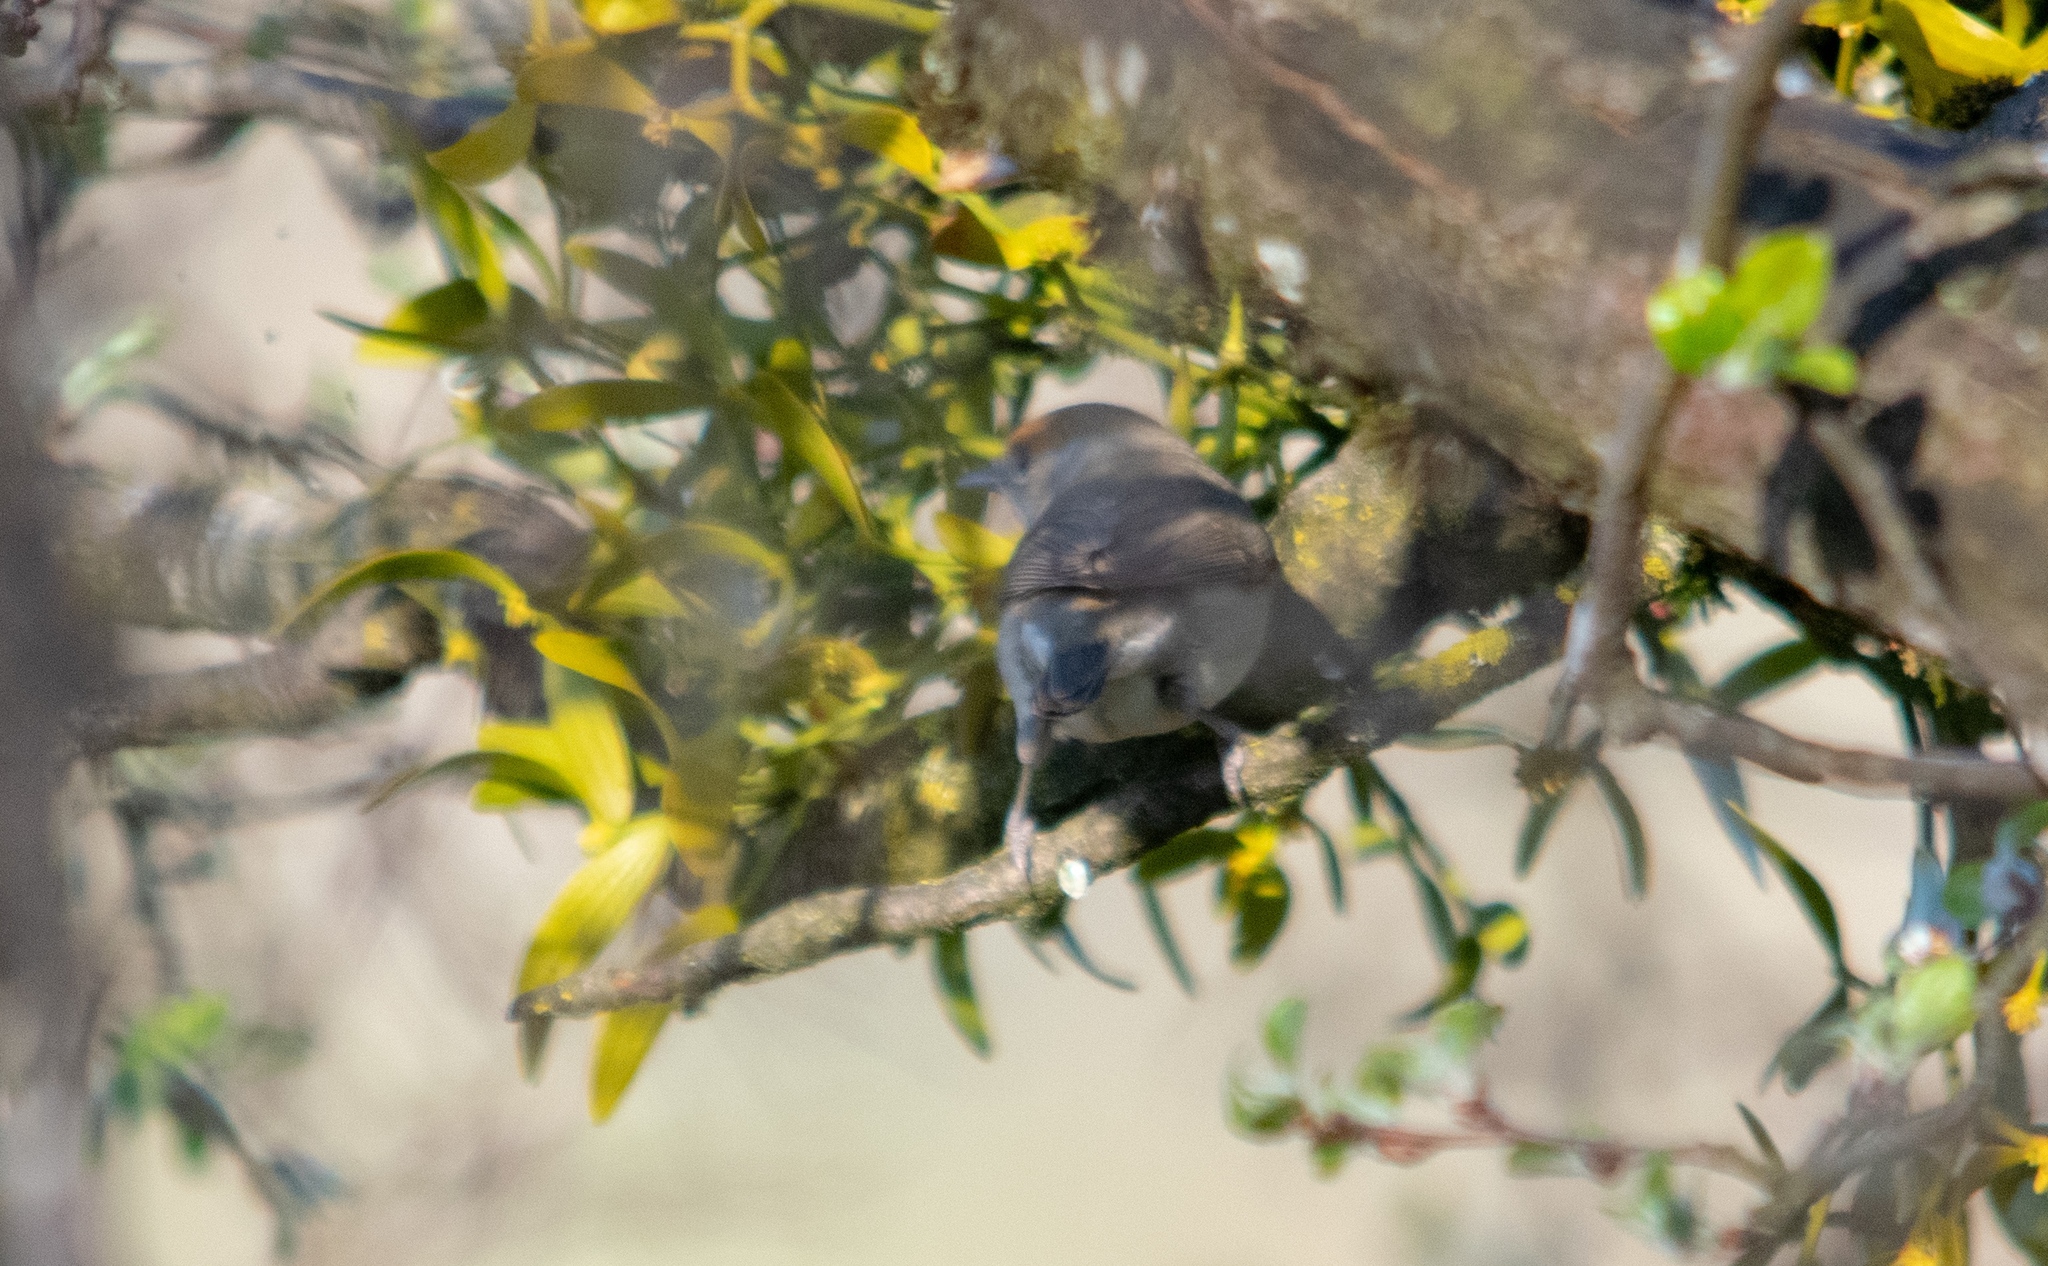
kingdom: Animalia
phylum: Chordata
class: Aves
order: Passeriformes
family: Sylviidae
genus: Sylvia
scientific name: Sylvia atricapilla
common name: Eurasian blackcap
